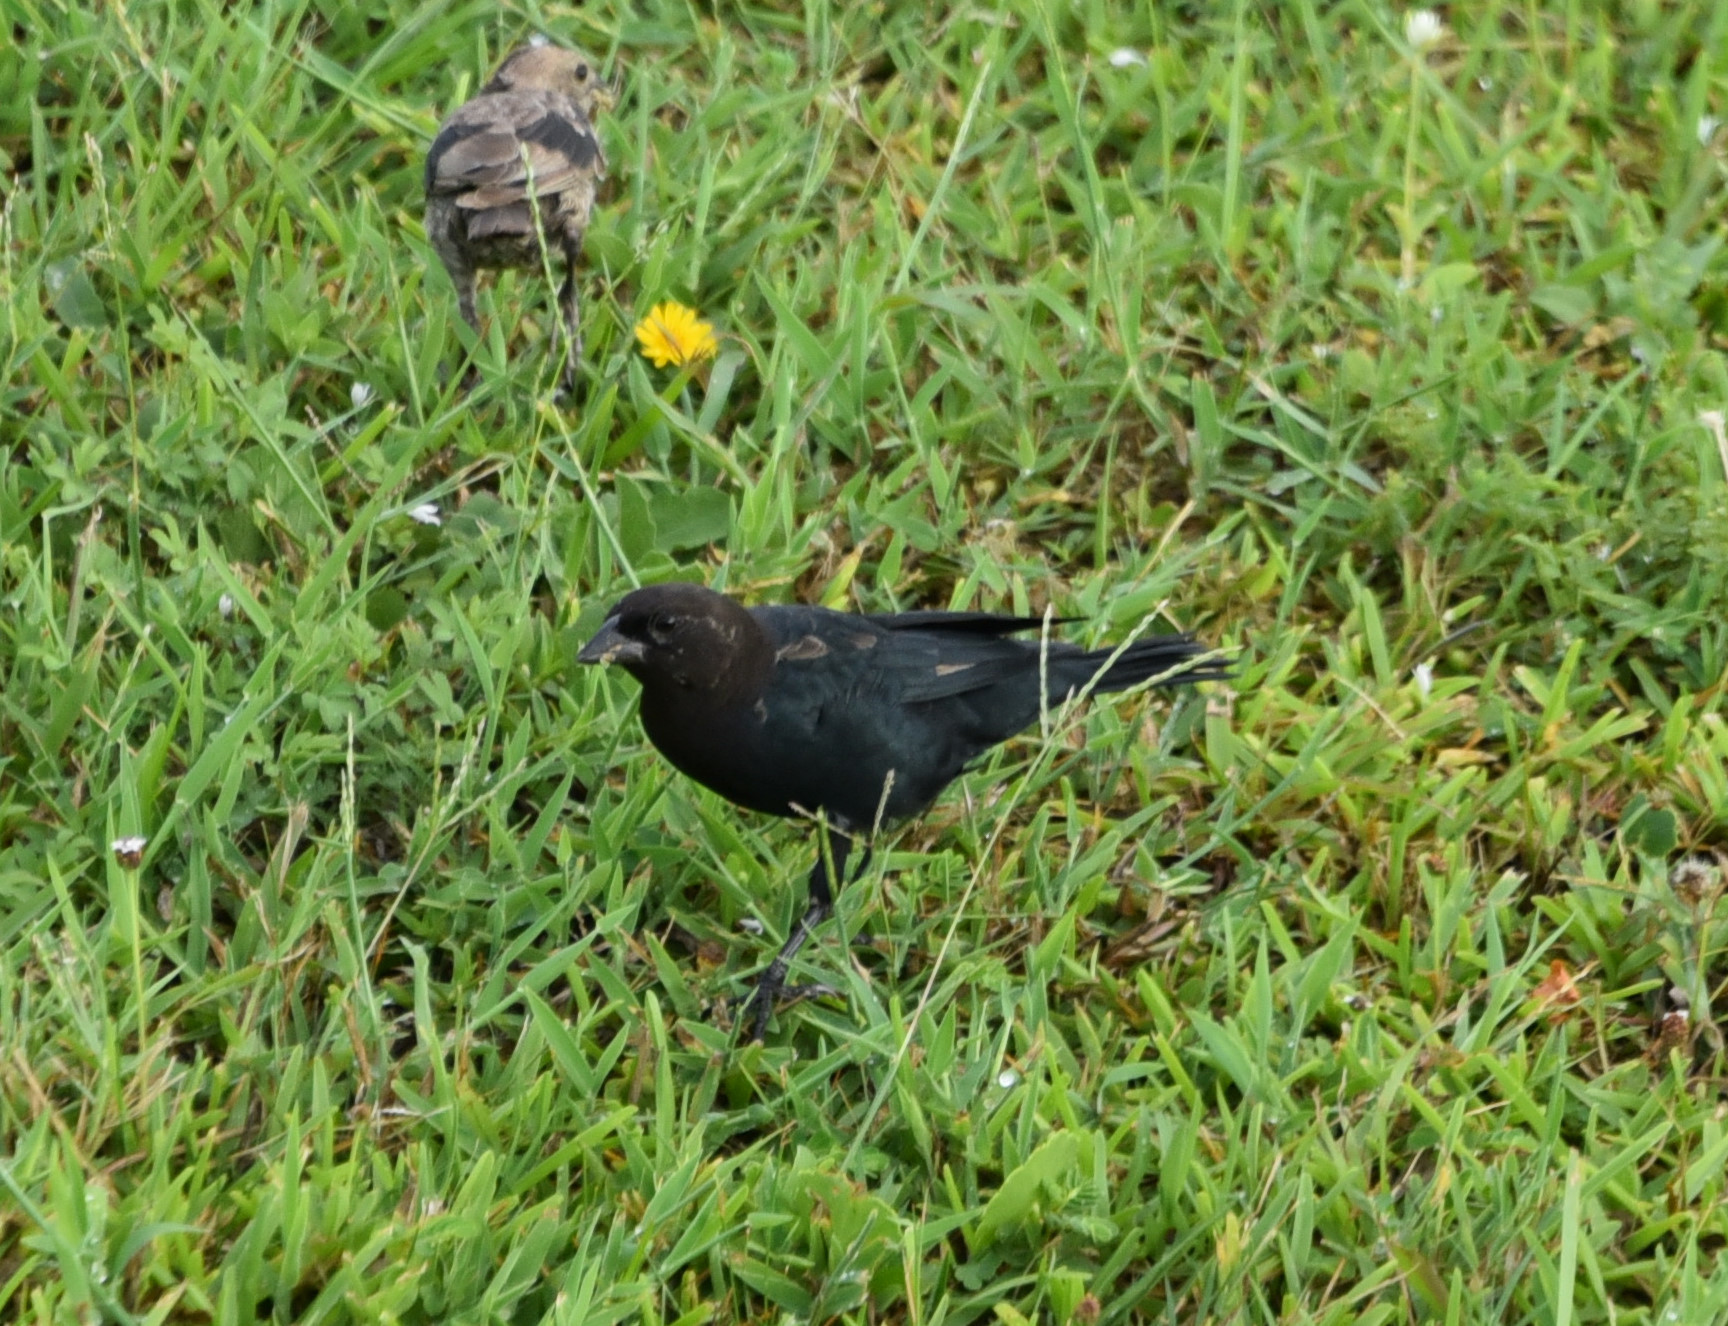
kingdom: Animalia
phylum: Chordata
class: Aves
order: Passeriformes
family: Icteridae
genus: Molothrus
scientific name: Molothrus ater
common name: Brown-headed cowbird
